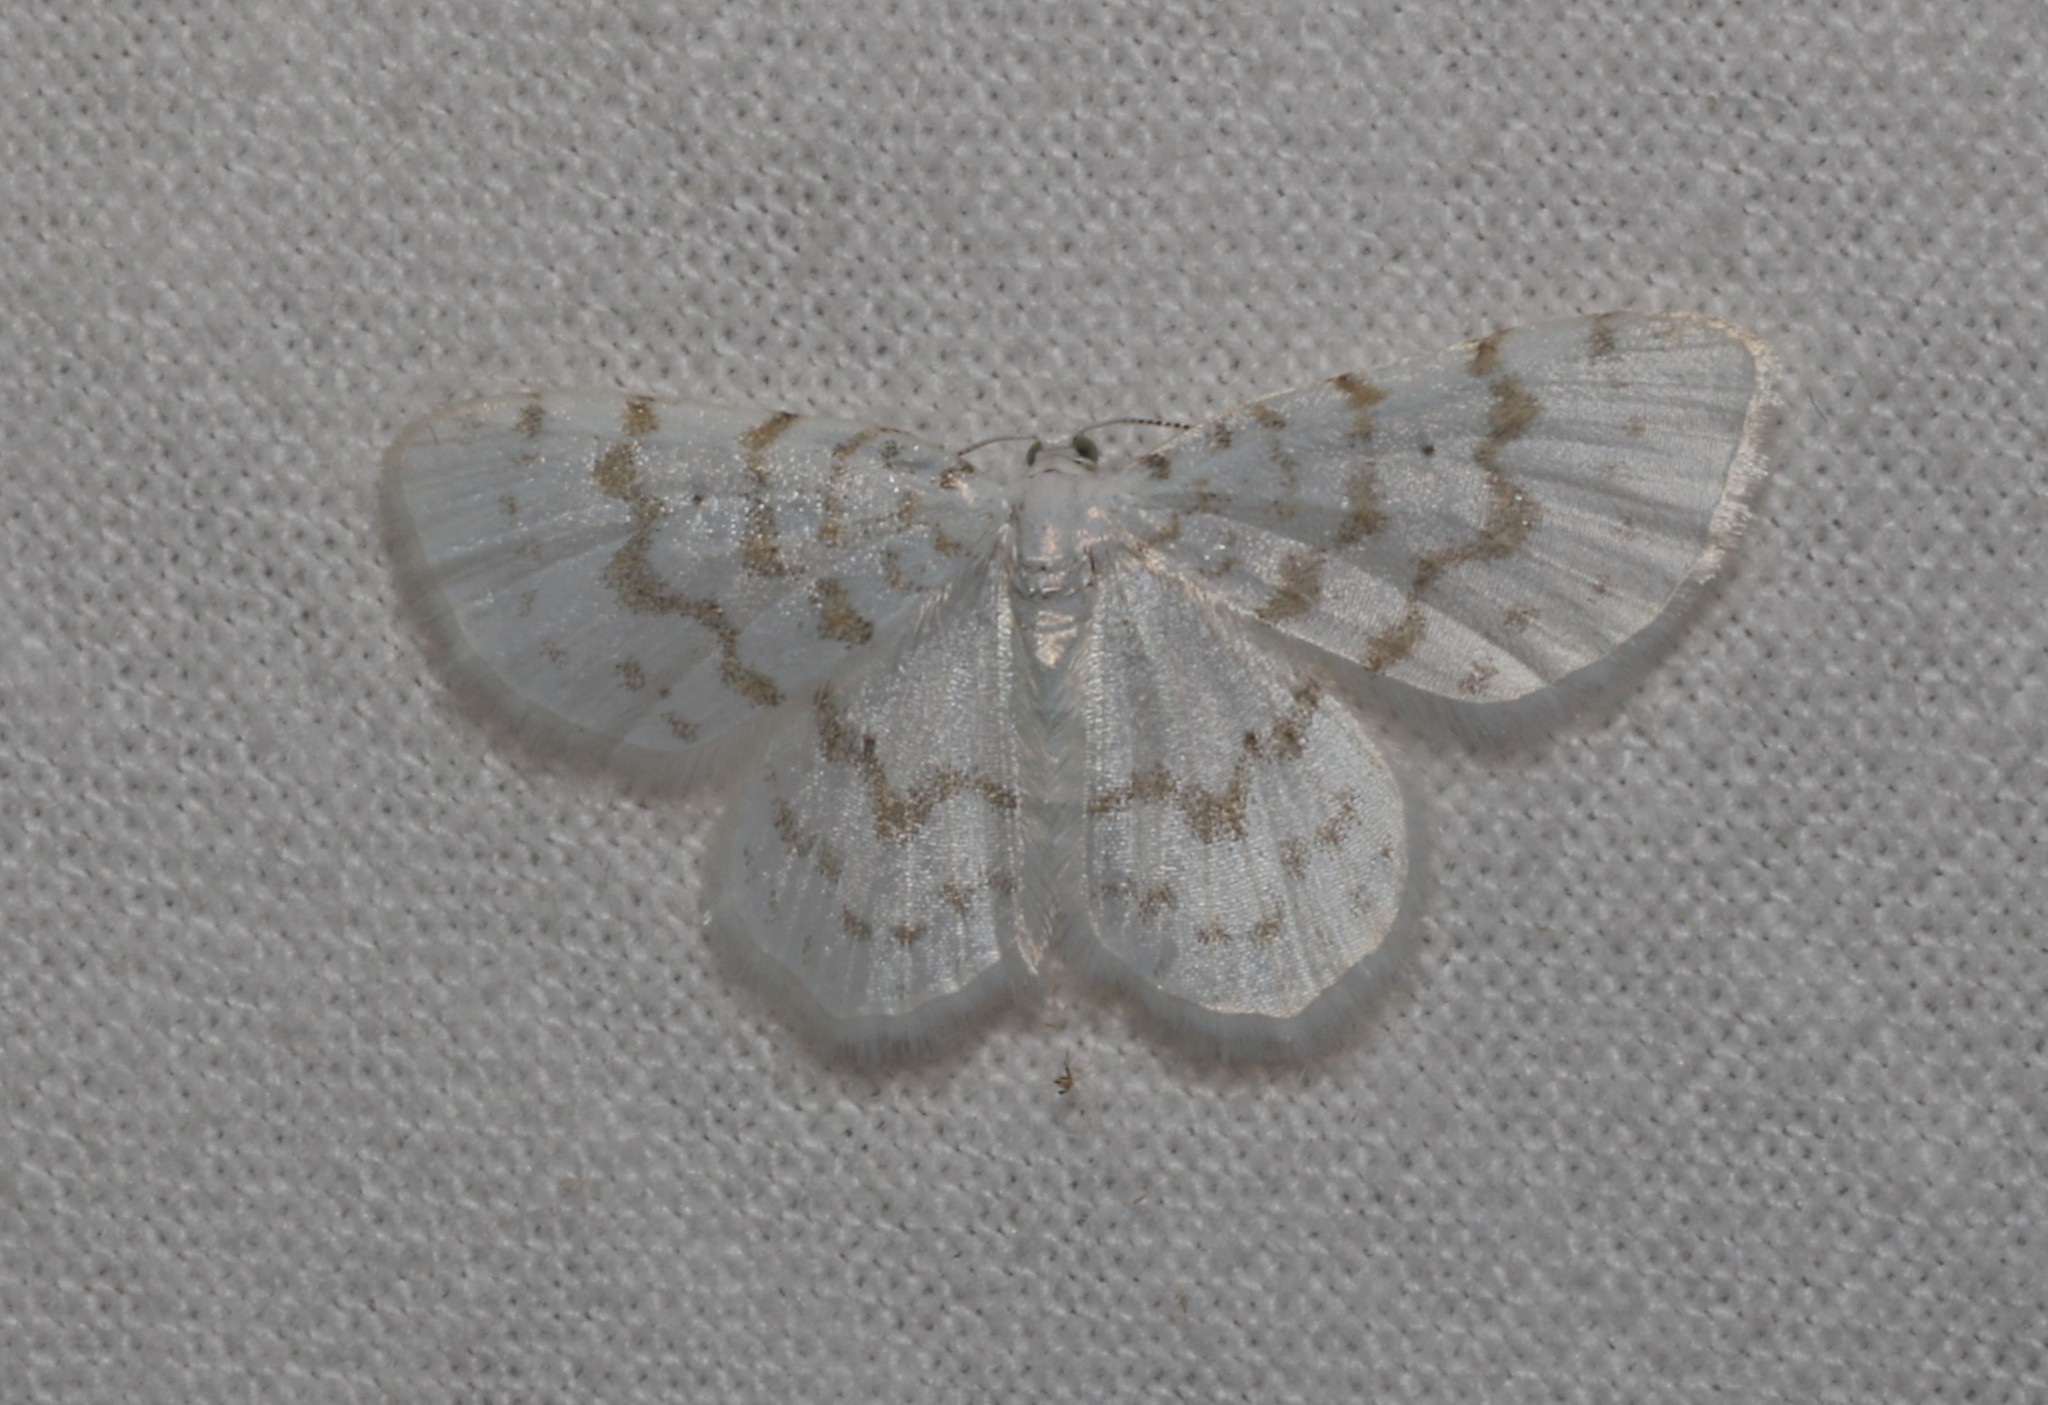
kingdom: Animalia
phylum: Arthropoda
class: Insecta
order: Lepidoptera
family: Geometridae
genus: Hydrelia
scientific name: Hydrelia albifera
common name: Fragile white carpet
